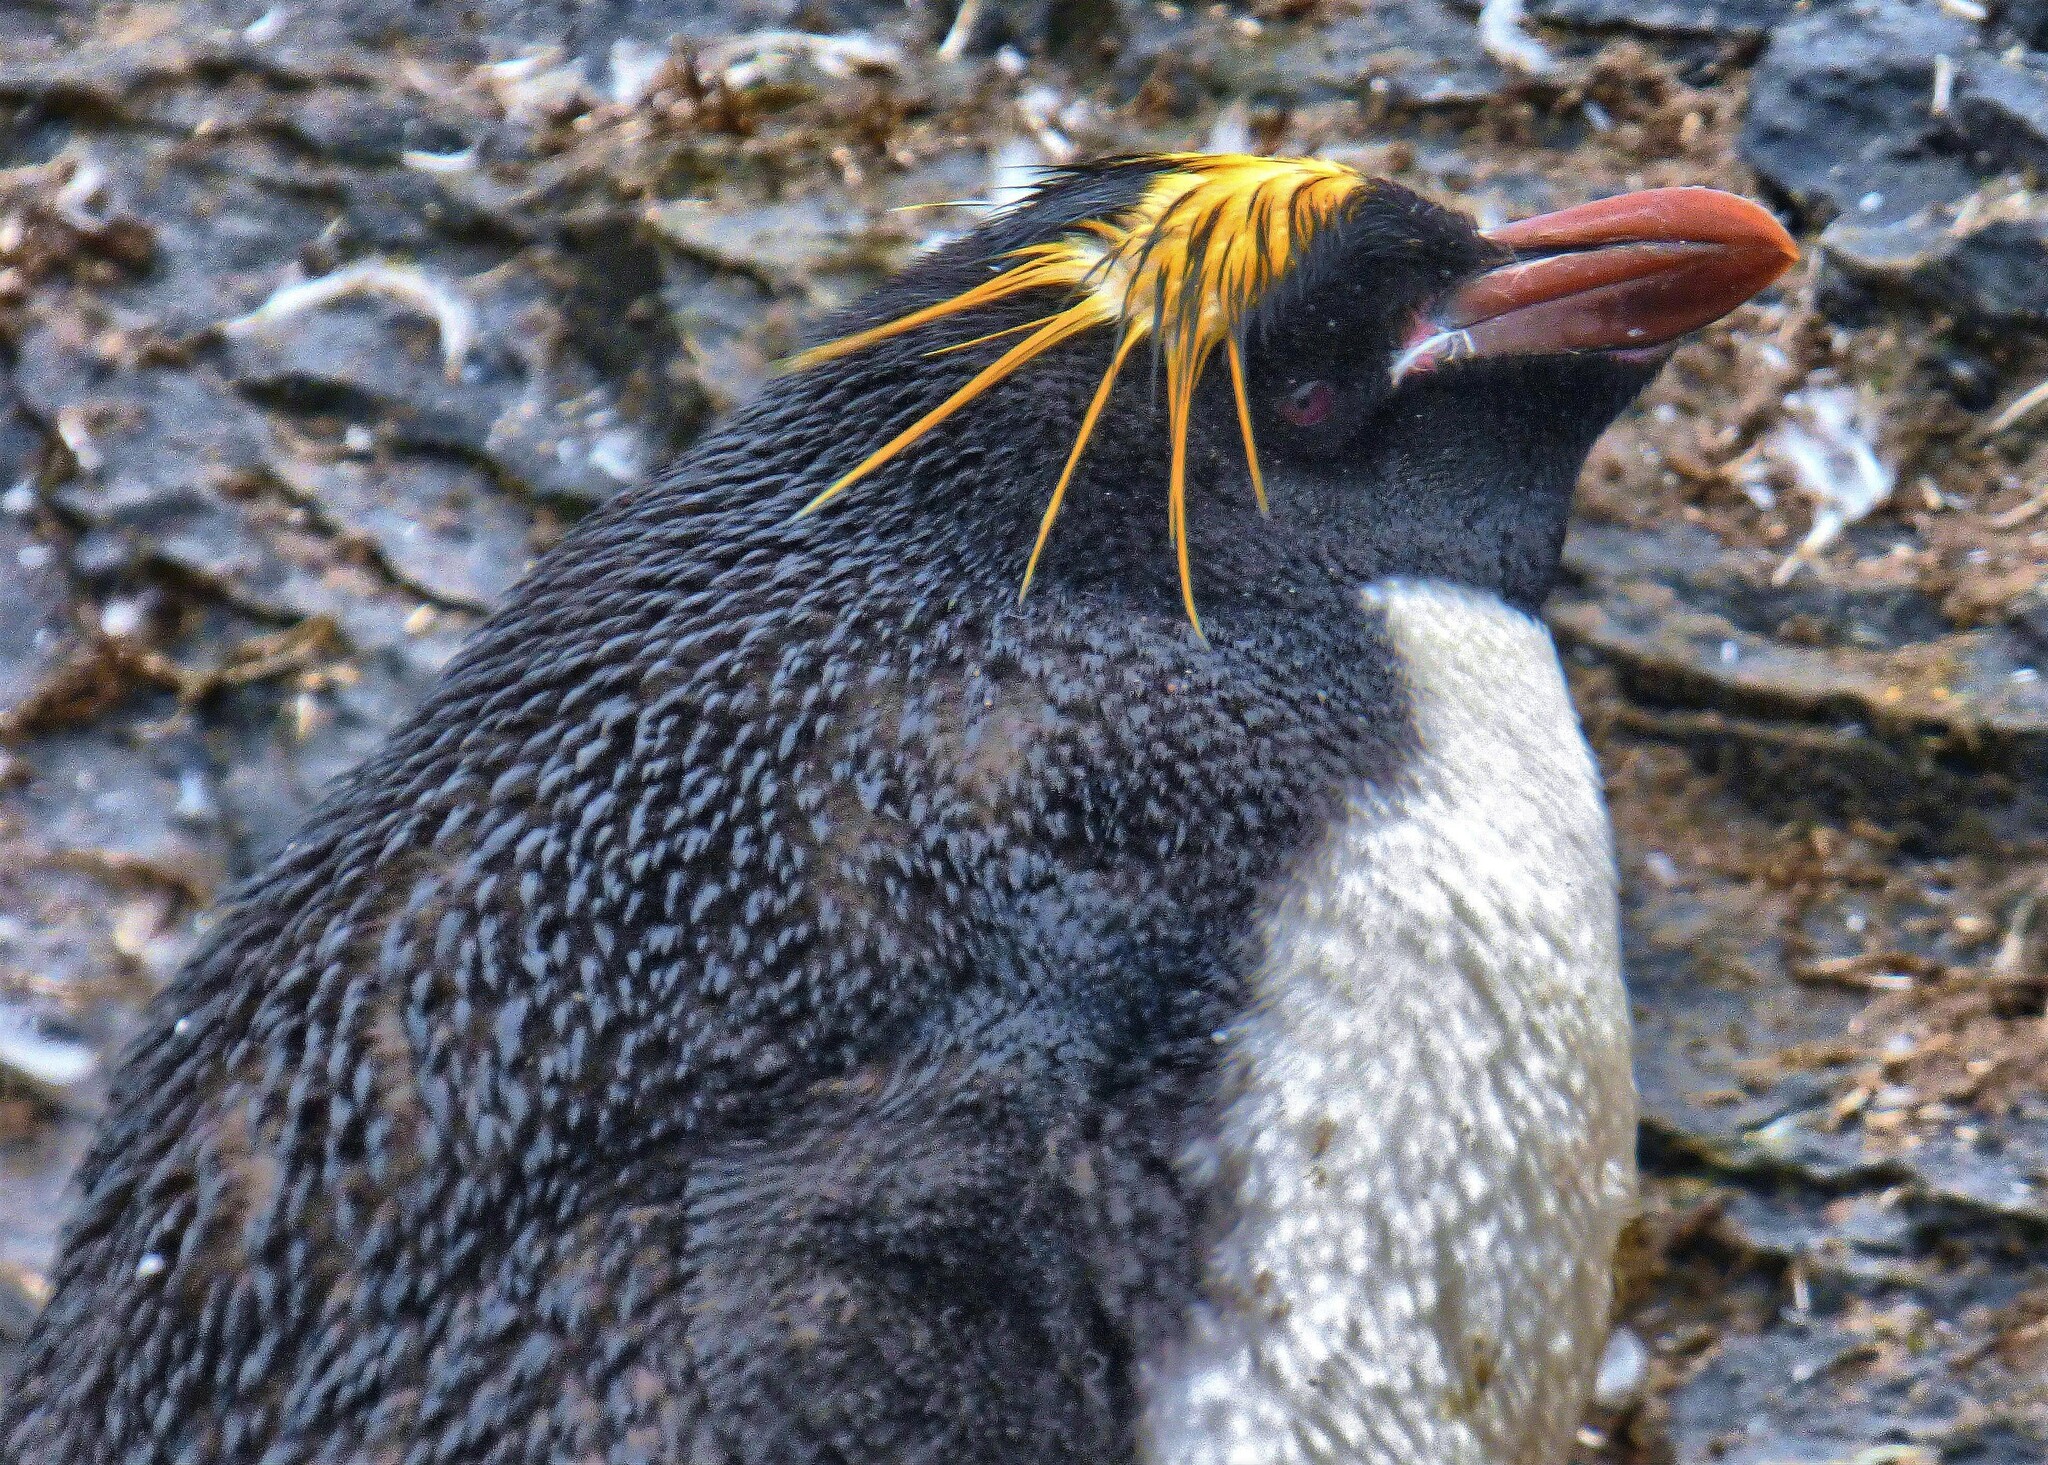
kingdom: Animalia
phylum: Chordata
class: Aves
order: Sphenisciformes
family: Spheniscidae
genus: Eudyptes
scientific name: Eudyptes chrysolophus
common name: Macaroni penguin
